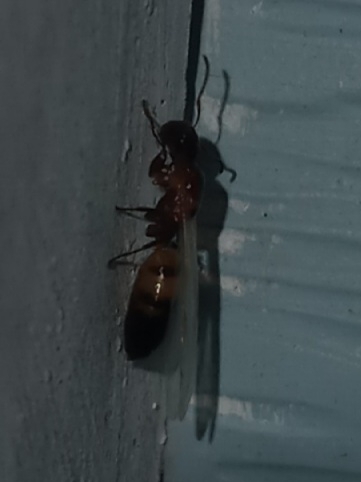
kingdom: Animalia
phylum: Arthropoda
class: Insecta
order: Hymenoptera
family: Formicidae
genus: Colobopsis
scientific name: Colobopsis impressa
